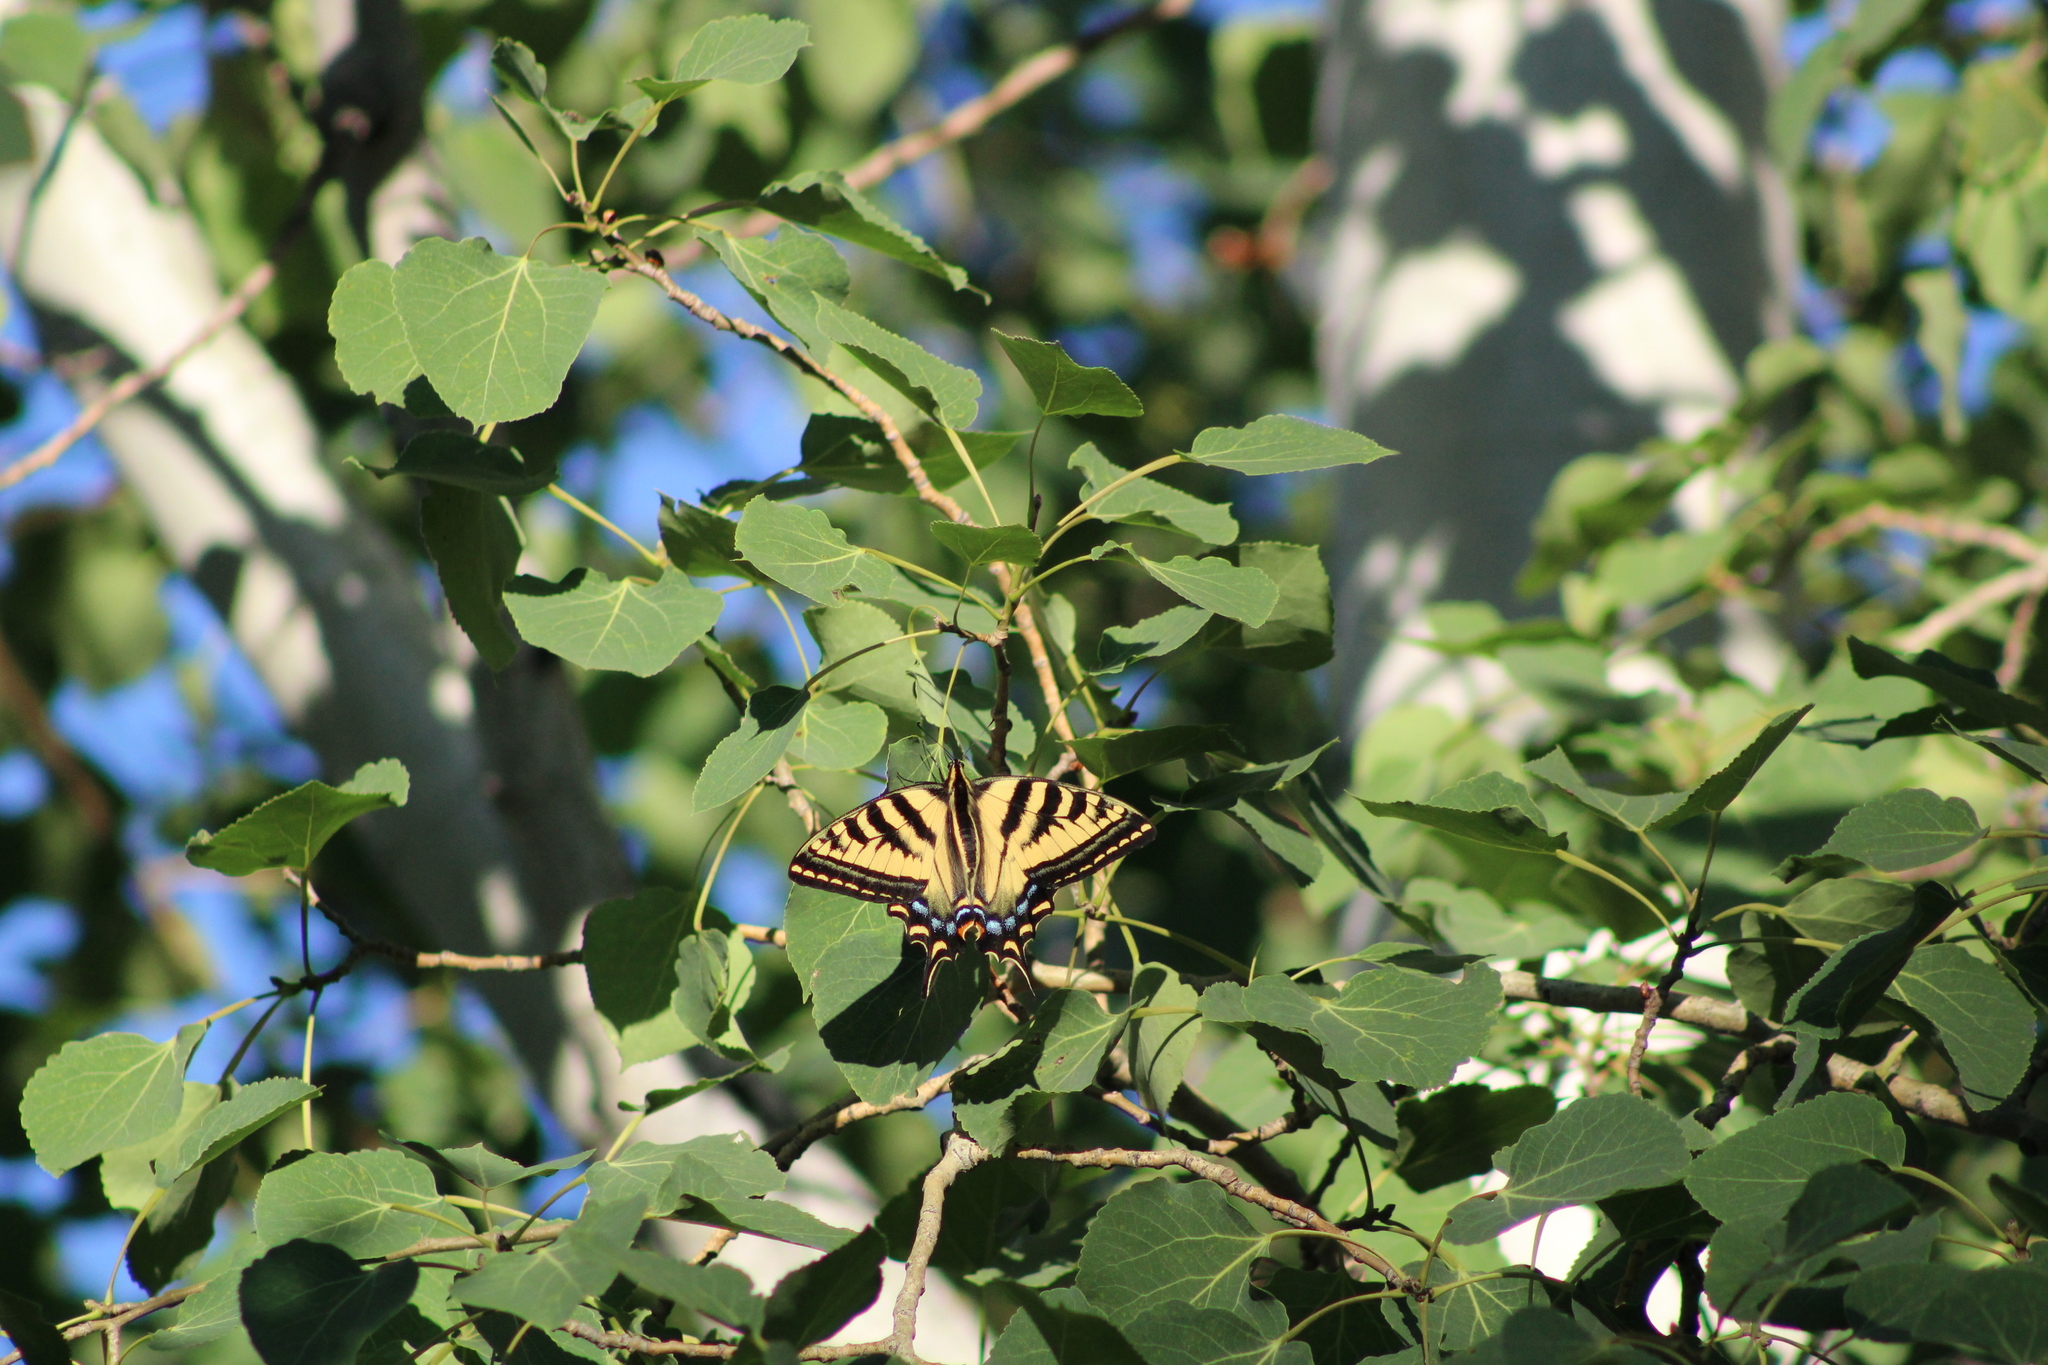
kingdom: Animalia
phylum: Arthropoda
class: Insecta
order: Lepidoptera
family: Papilionidae
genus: Papilio
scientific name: Papilio rutulus
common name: Western tiger swallowtail
